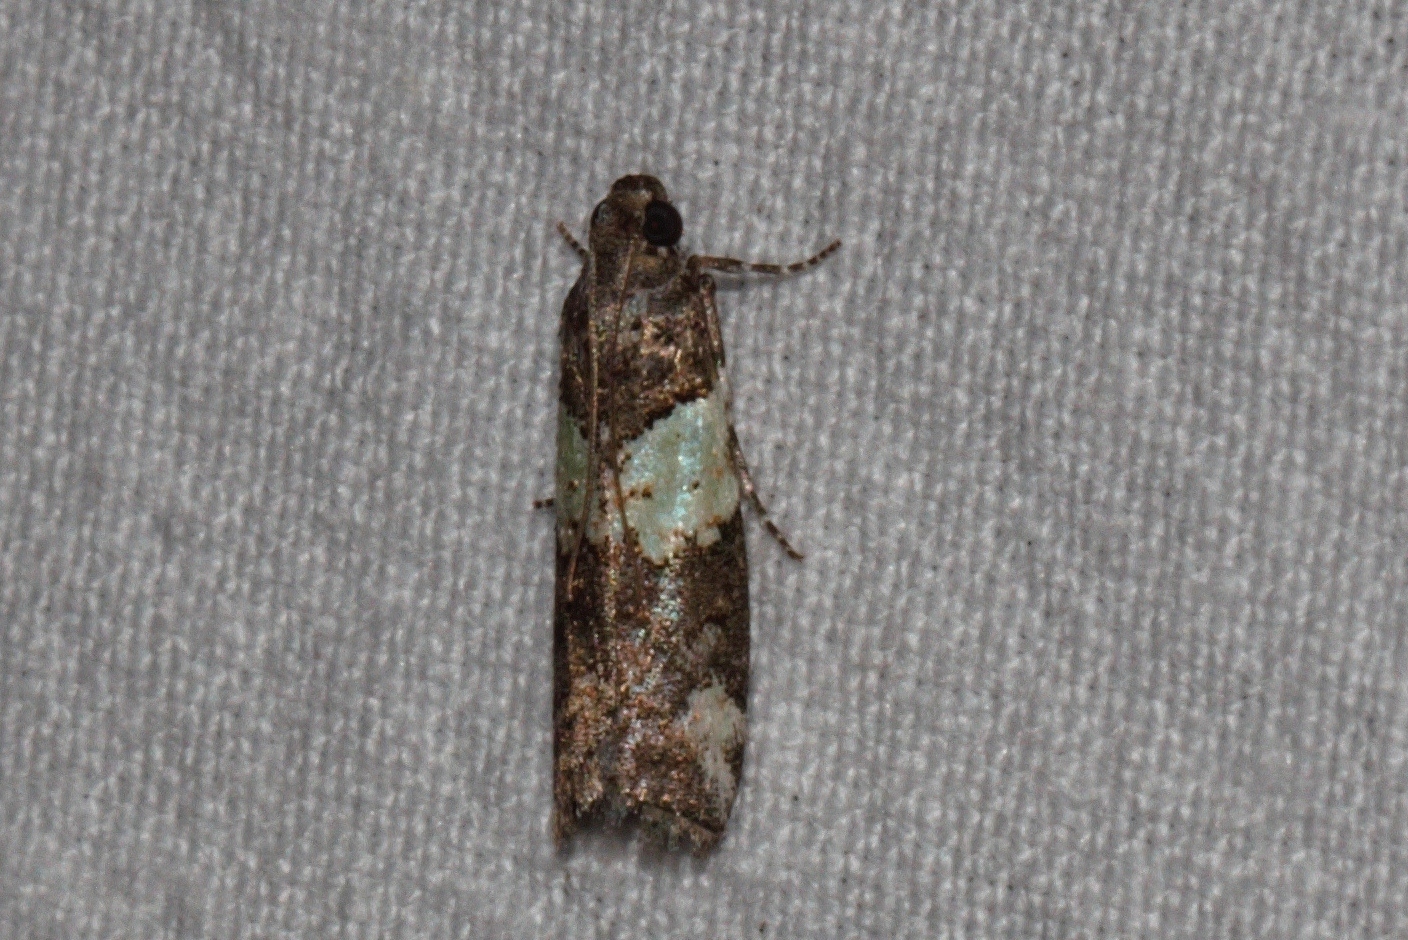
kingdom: Animalia
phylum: Arthropoda
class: Insecta
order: Lepidoptera
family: Pyralidae
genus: Acrobasis
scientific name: Acrobasis
